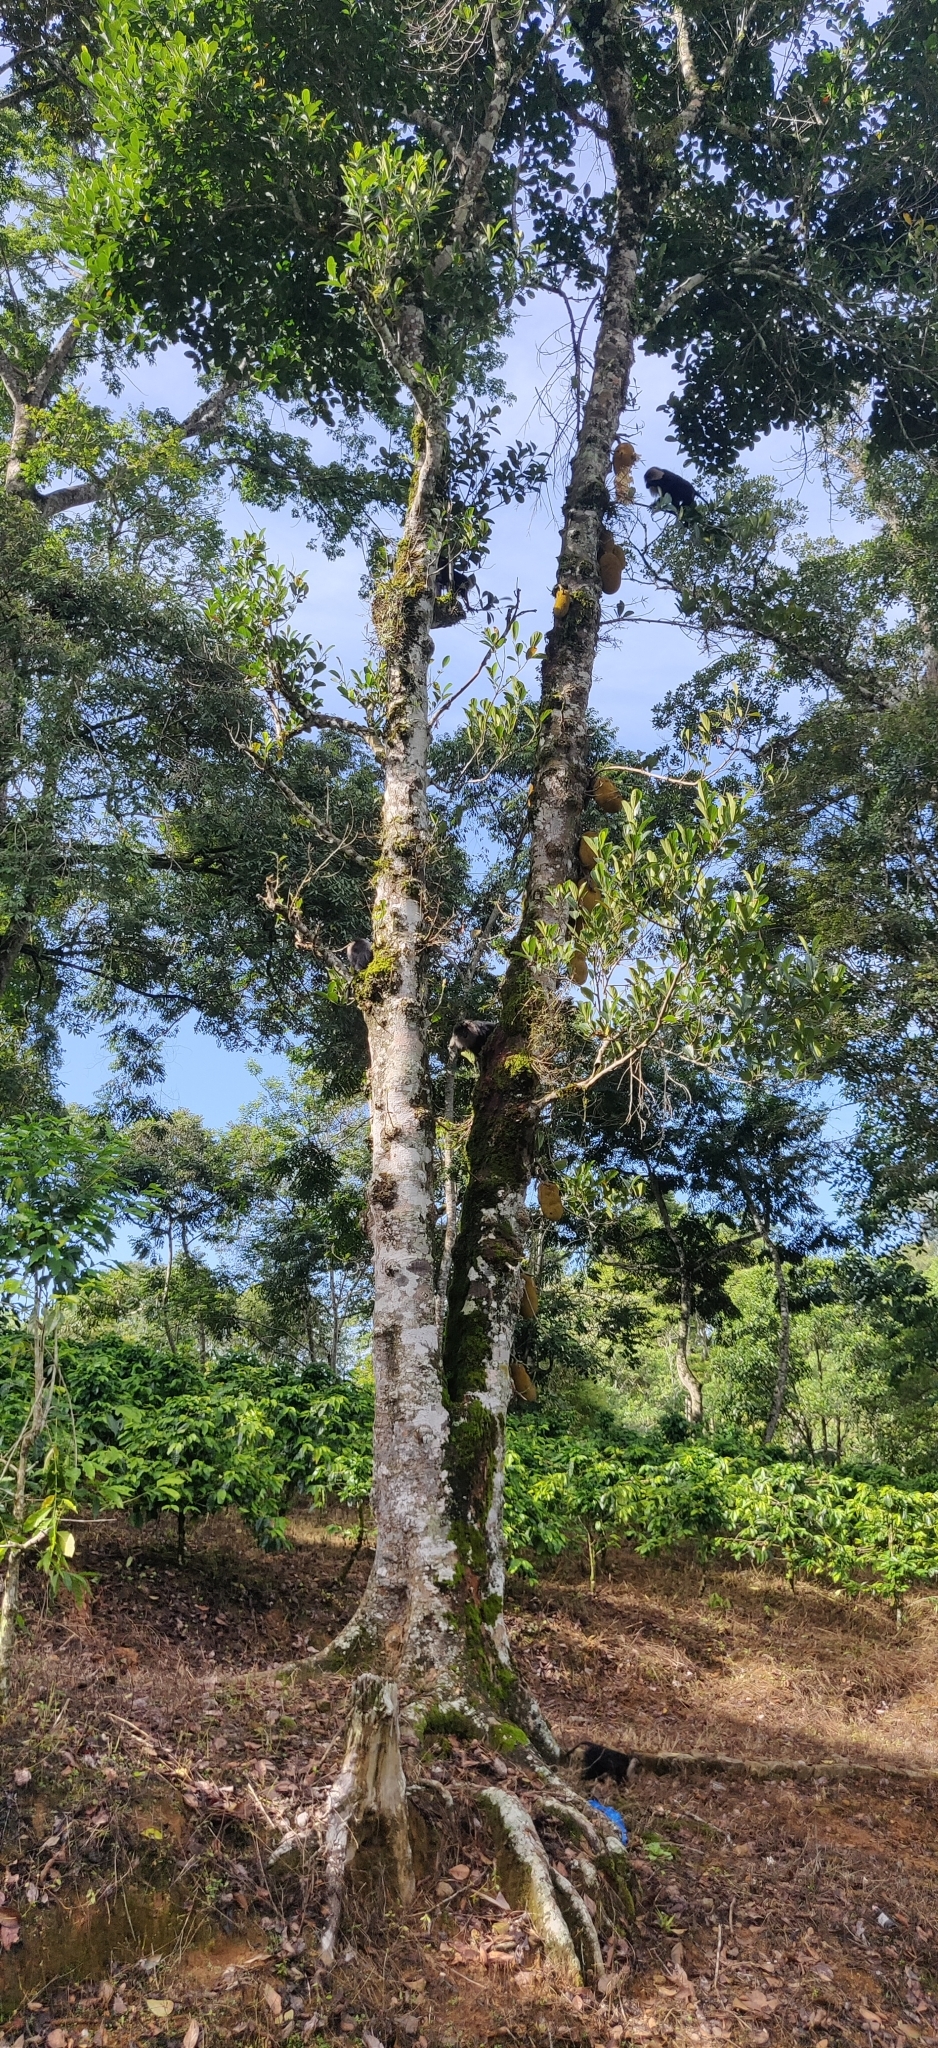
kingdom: Plantae
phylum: Tracheophyta
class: Magnoliopsida
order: Rosales
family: Moraceae
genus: Artocarpus
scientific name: Artocarpus heterophyllus
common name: Jackfruit
